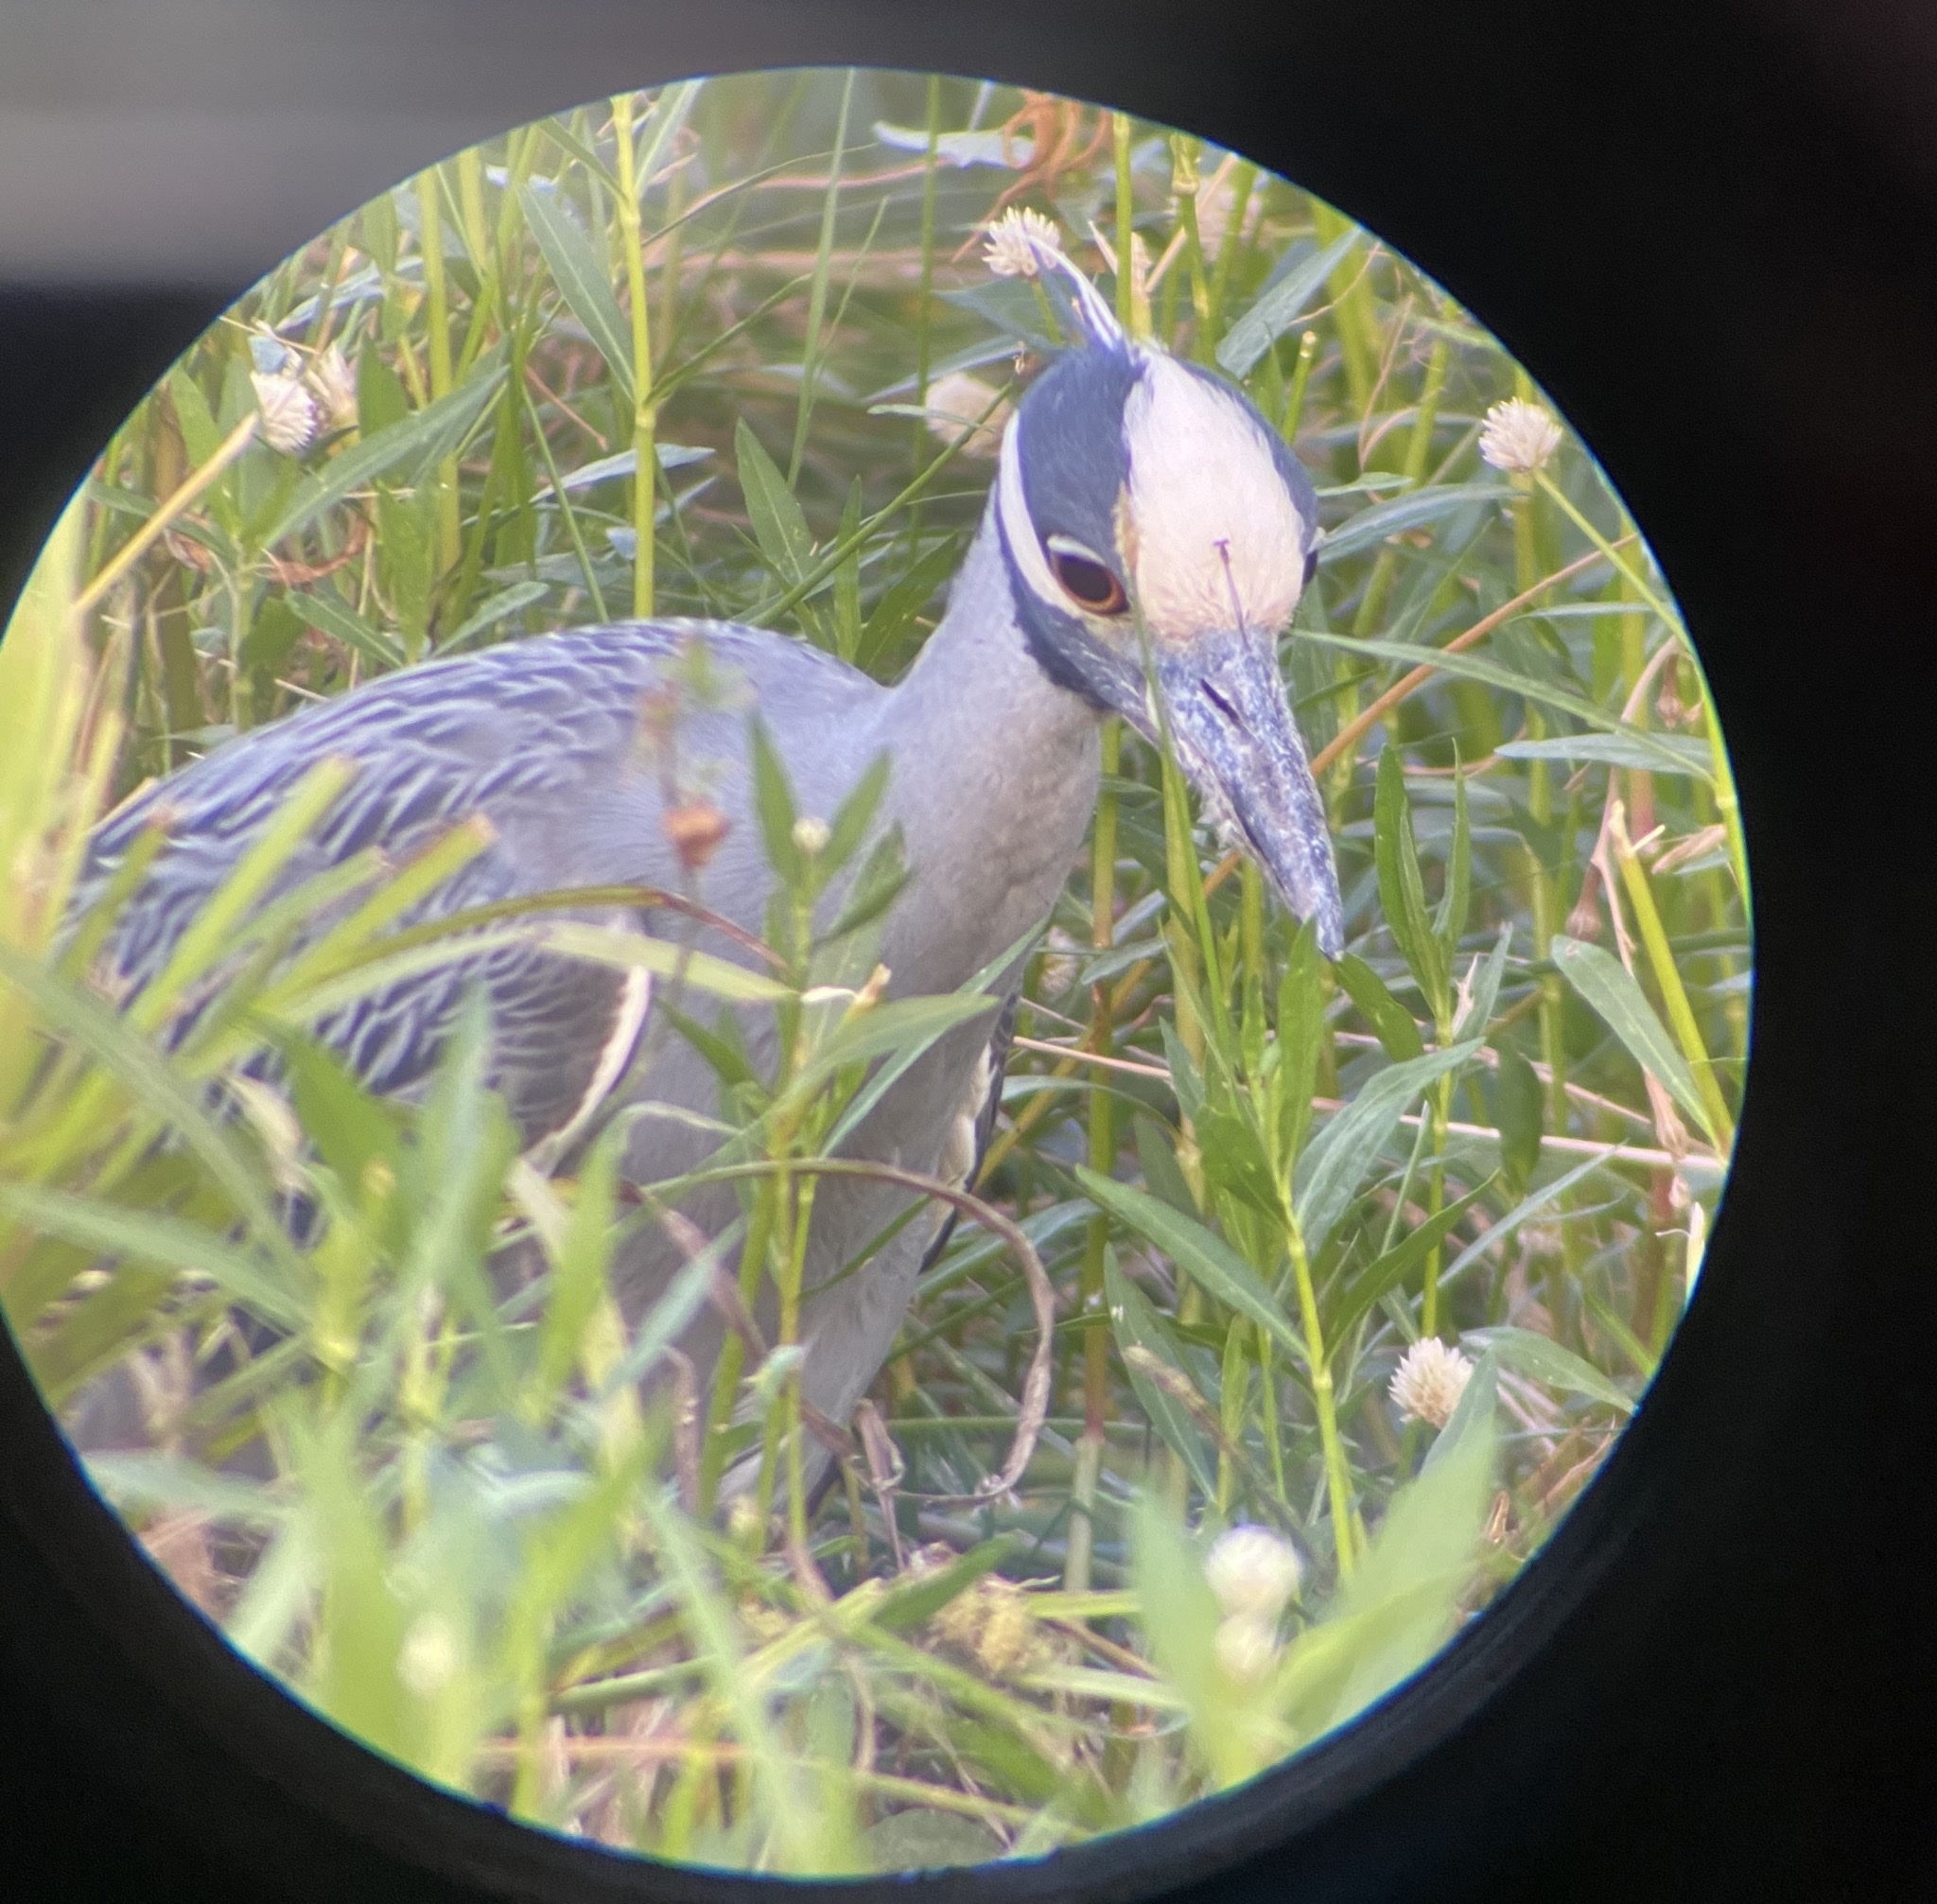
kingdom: Animalia
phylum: Chordata
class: Aves
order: Pelecaniformes
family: Ardeidae
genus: Nyctanassa
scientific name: Nyctanassa violacea
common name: Yellow-crowned night heron
